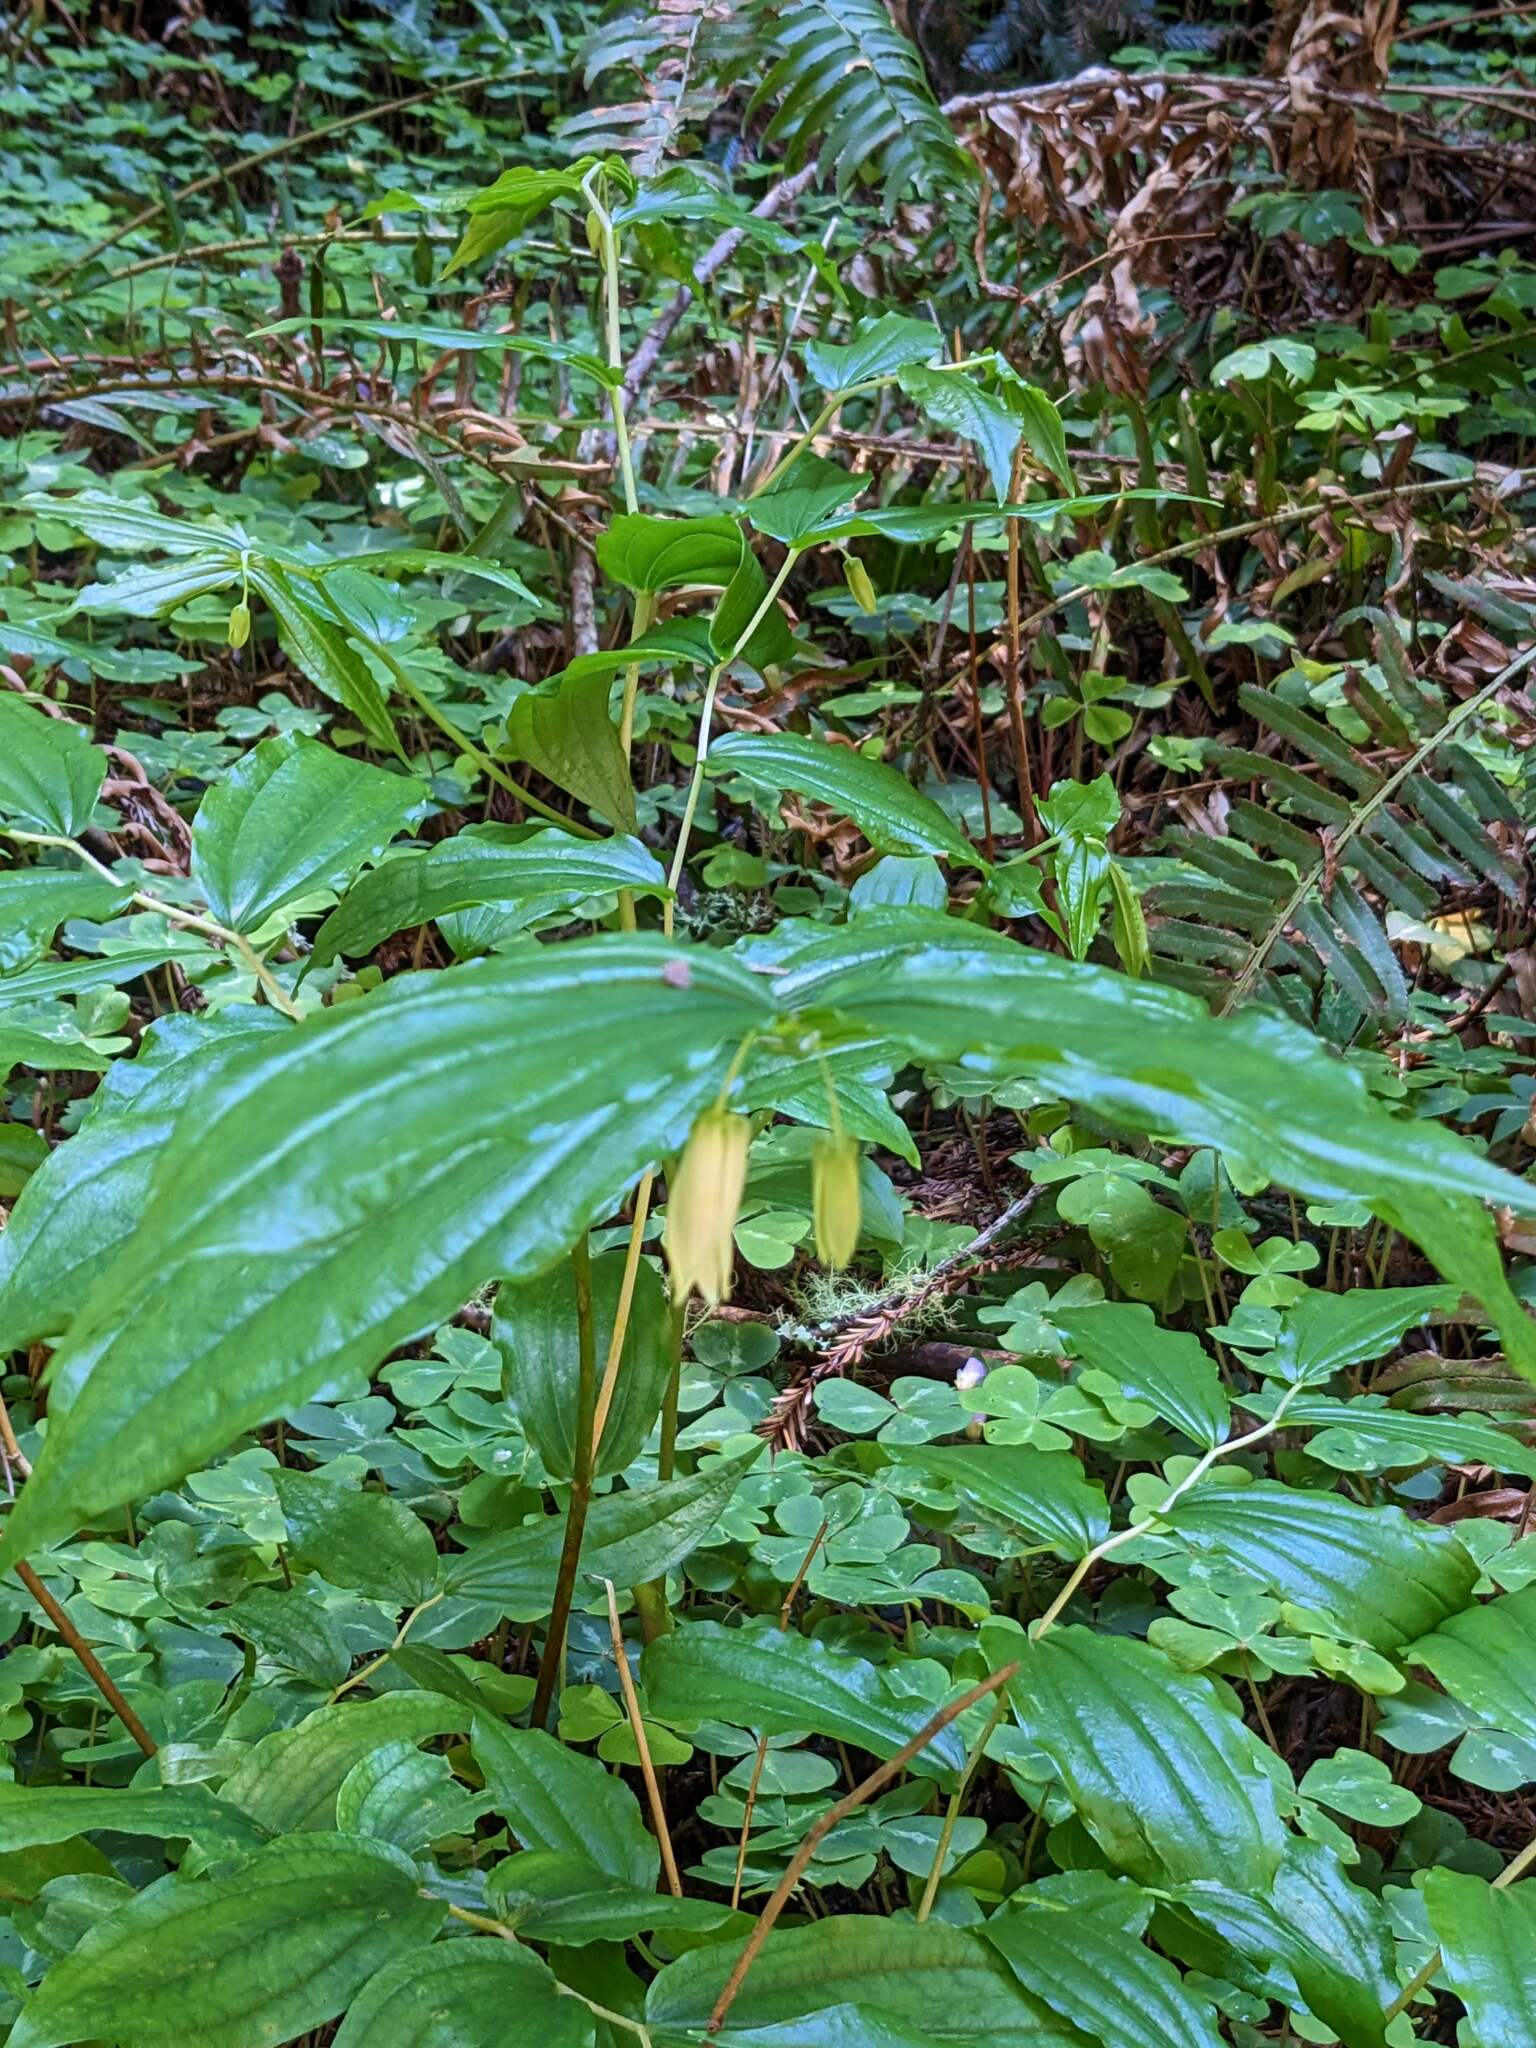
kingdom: Plantae
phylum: Tracheophyta
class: Liliopsida
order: Liliales
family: Liliaceae
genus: Prosartes
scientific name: Prosartes smithii
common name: Fairy-lantern
